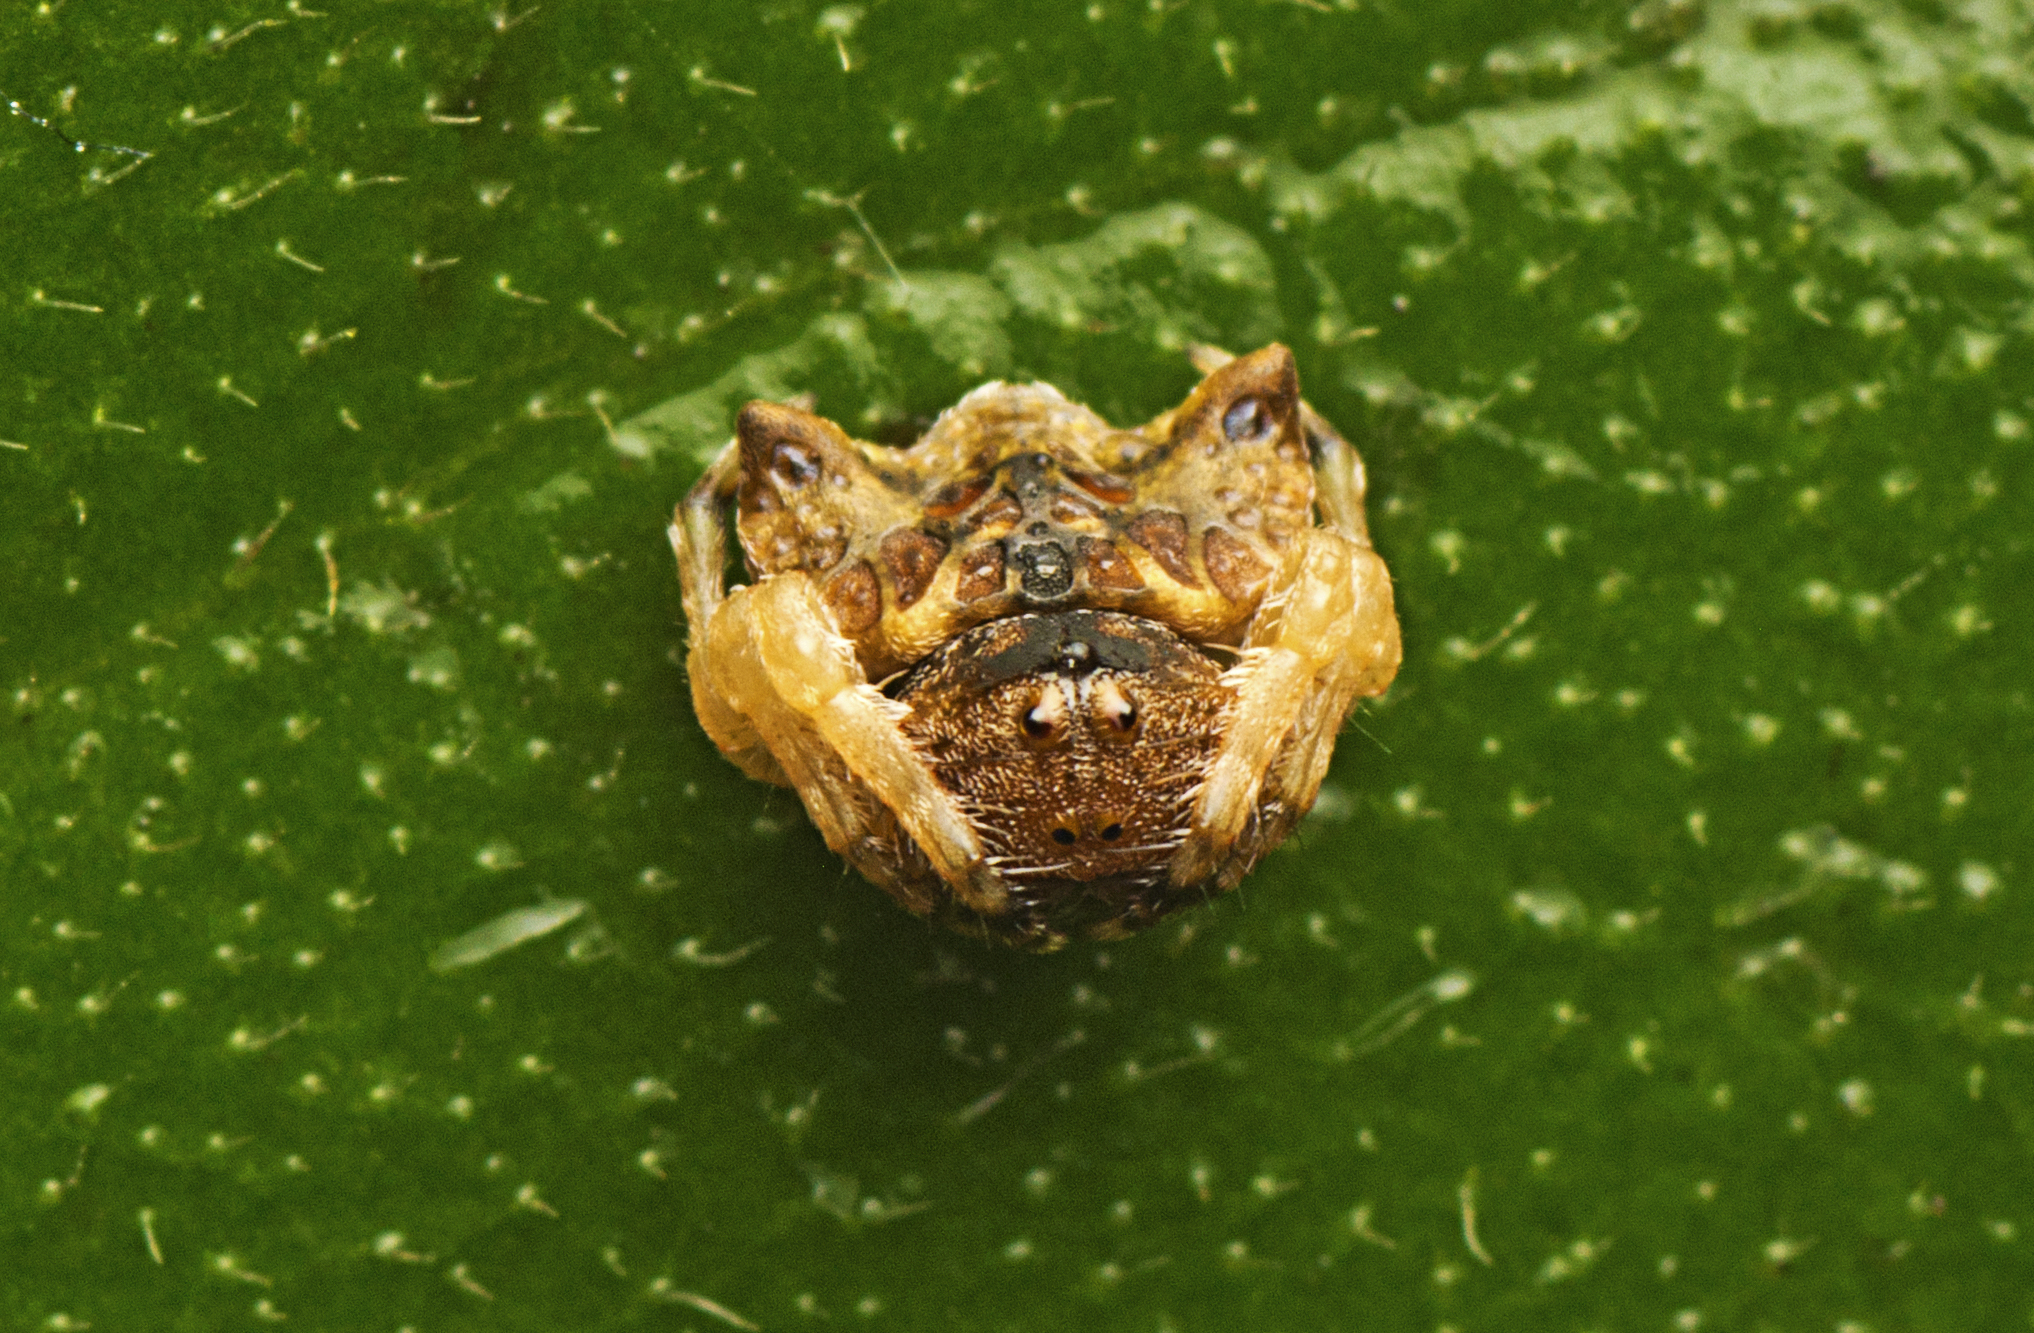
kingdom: Animalia
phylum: Arthropoda
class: Arachnida
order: Araneae
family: Arkyidae
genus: Arkys
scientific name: Arkys curtulus
